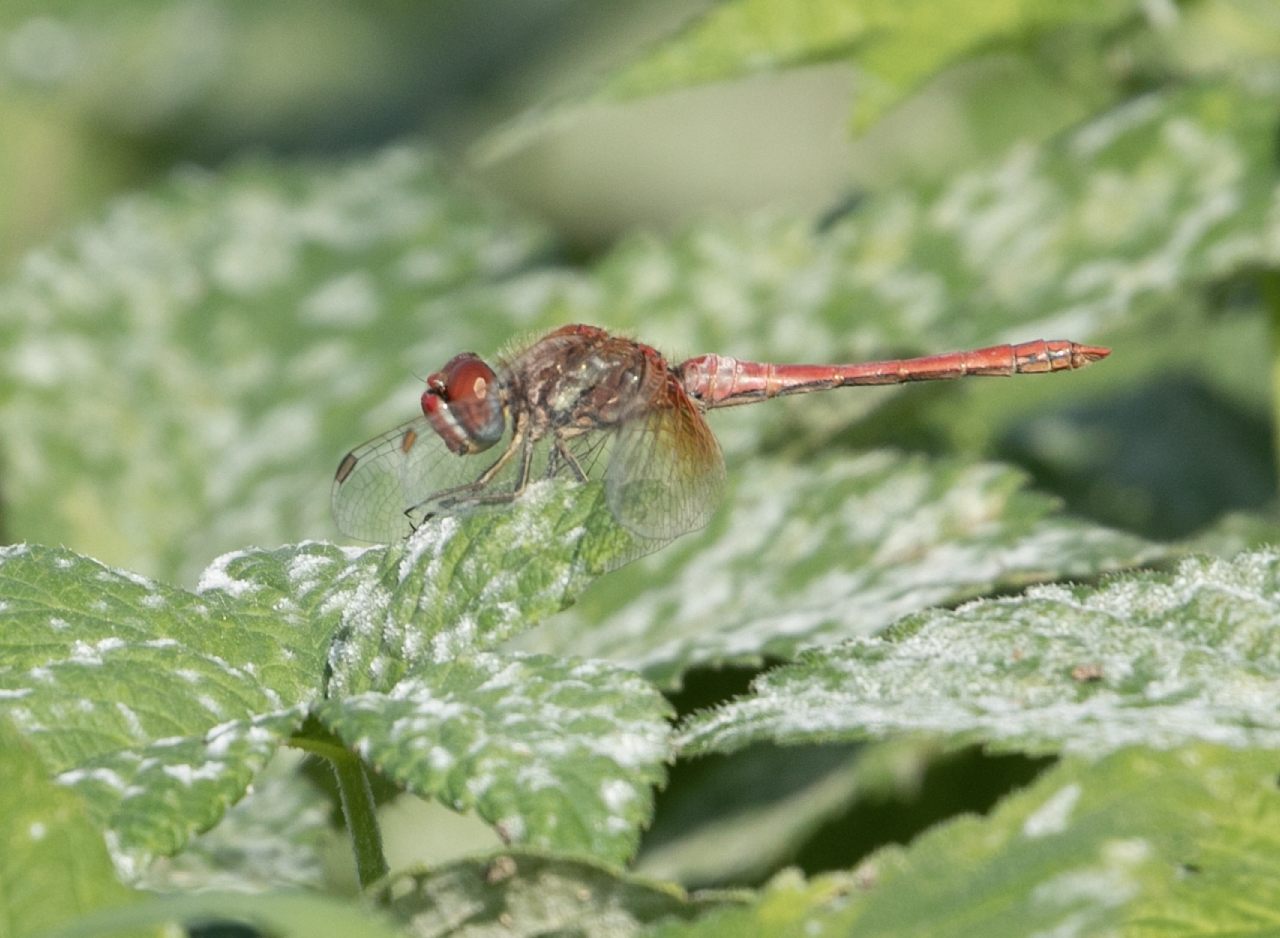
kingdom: Animalia
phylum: Arthropoda
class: Insecta
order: Odonata
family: Libellulidae
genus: Sympetrum
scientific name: Sympetrum fonscolombii
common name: Red-veined darter
